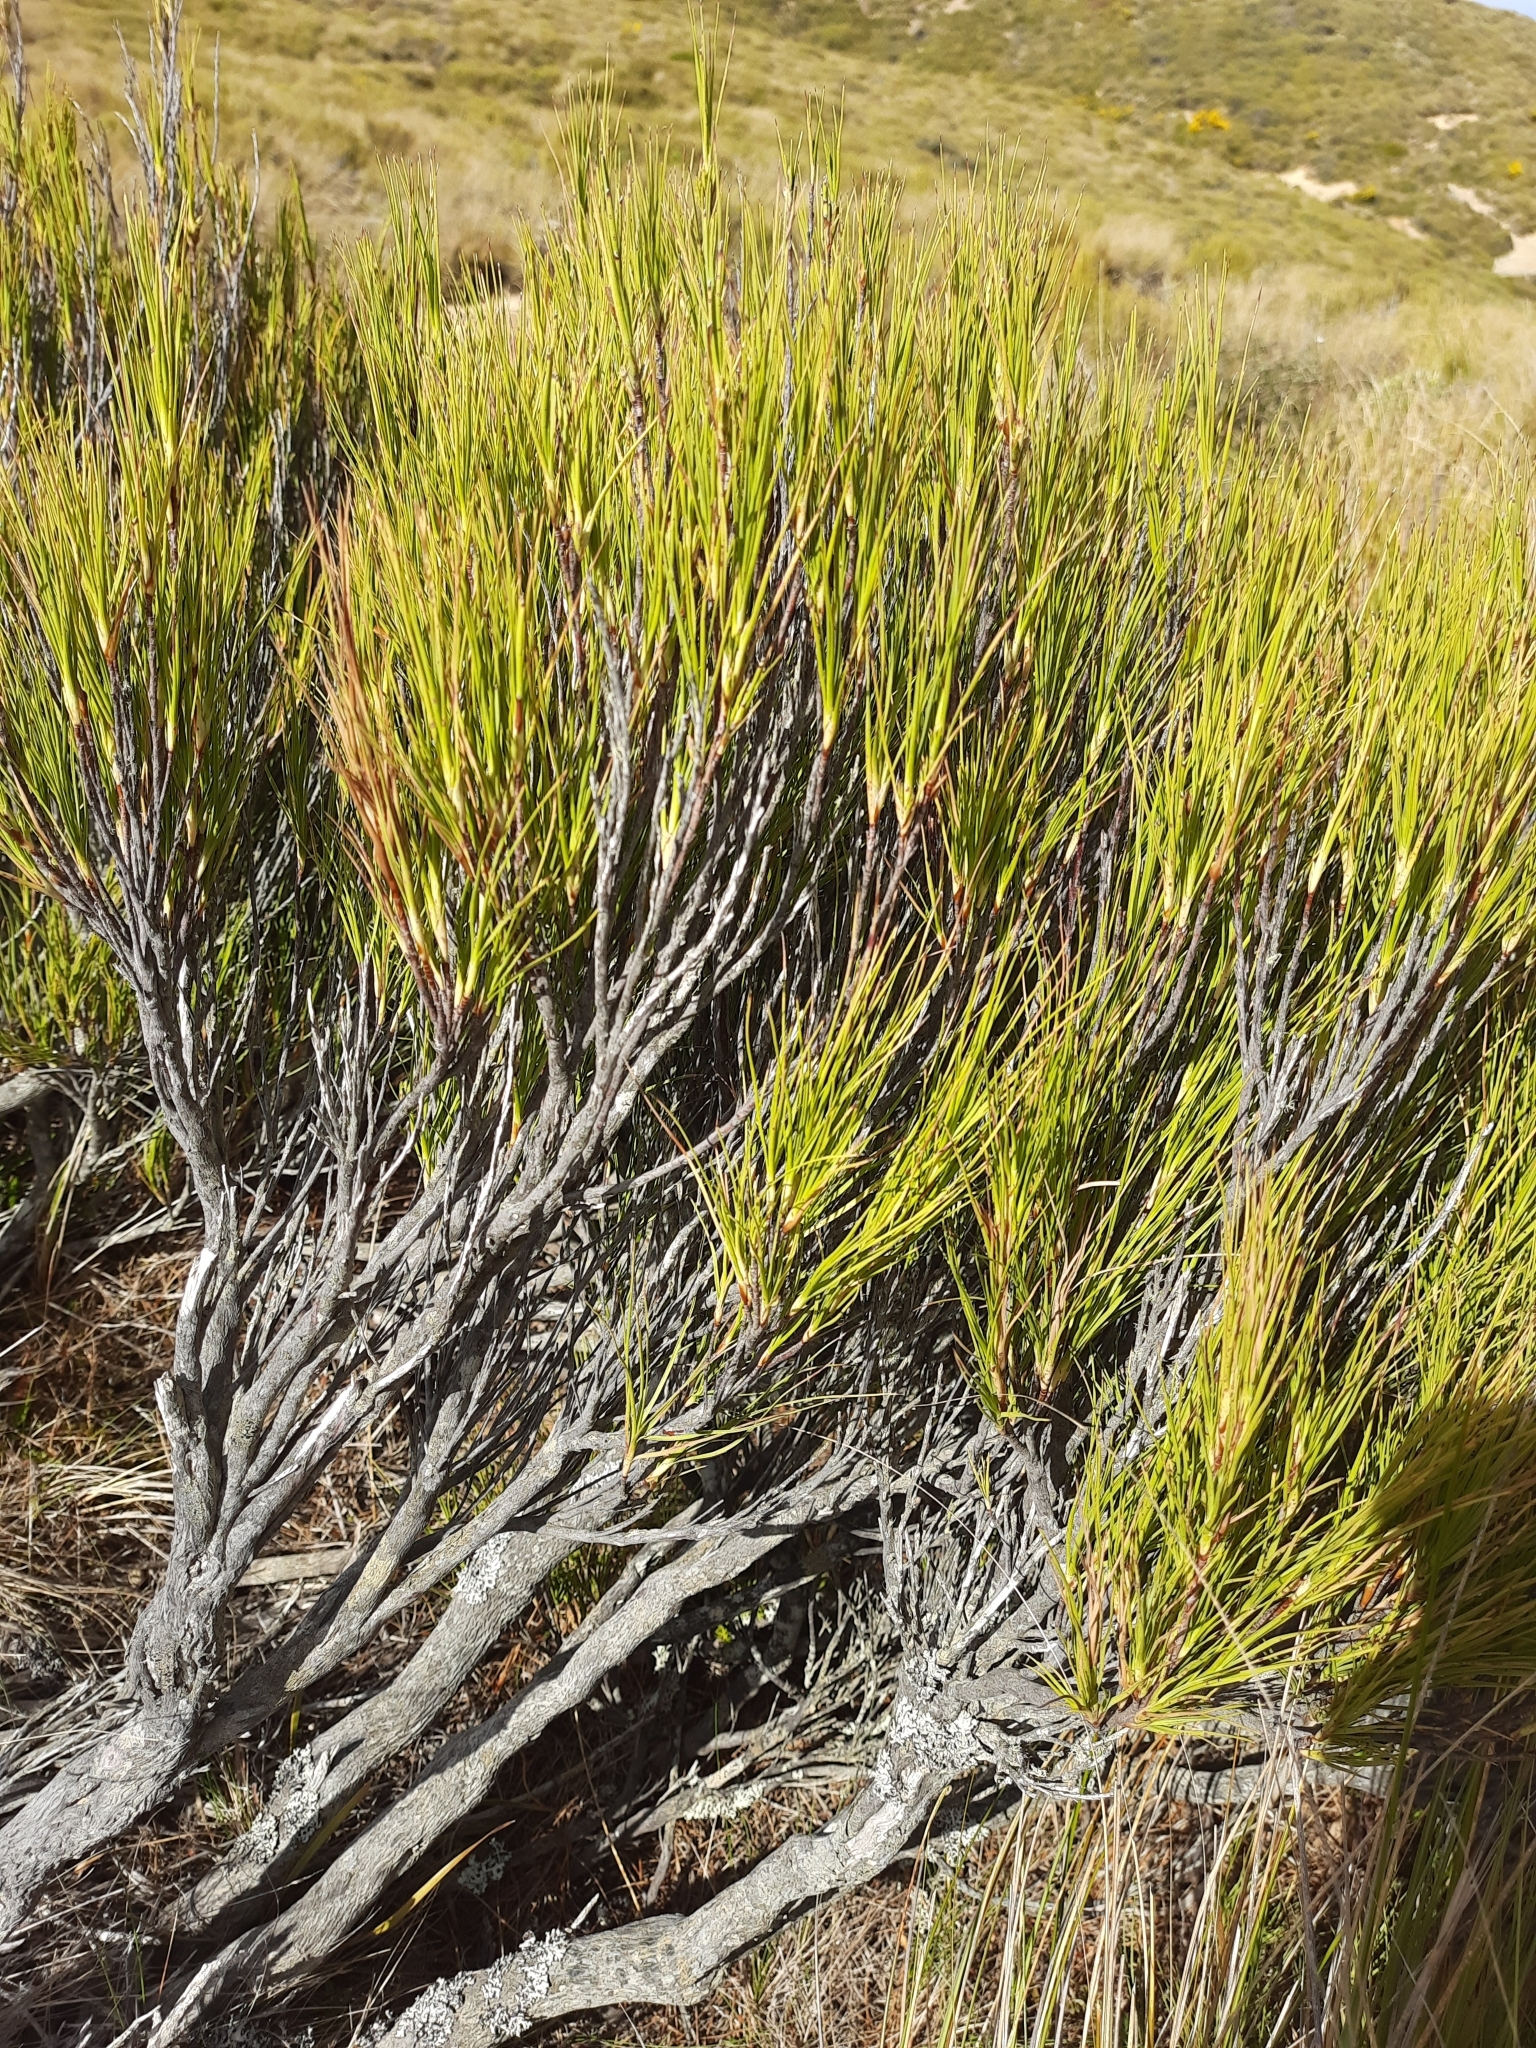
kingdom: Plantae
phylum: Tracheophyta
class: Magnoliopsida
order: Ericales
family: Ericaceae
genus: Dracophyllum
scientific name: Dracophyllum longifolium
